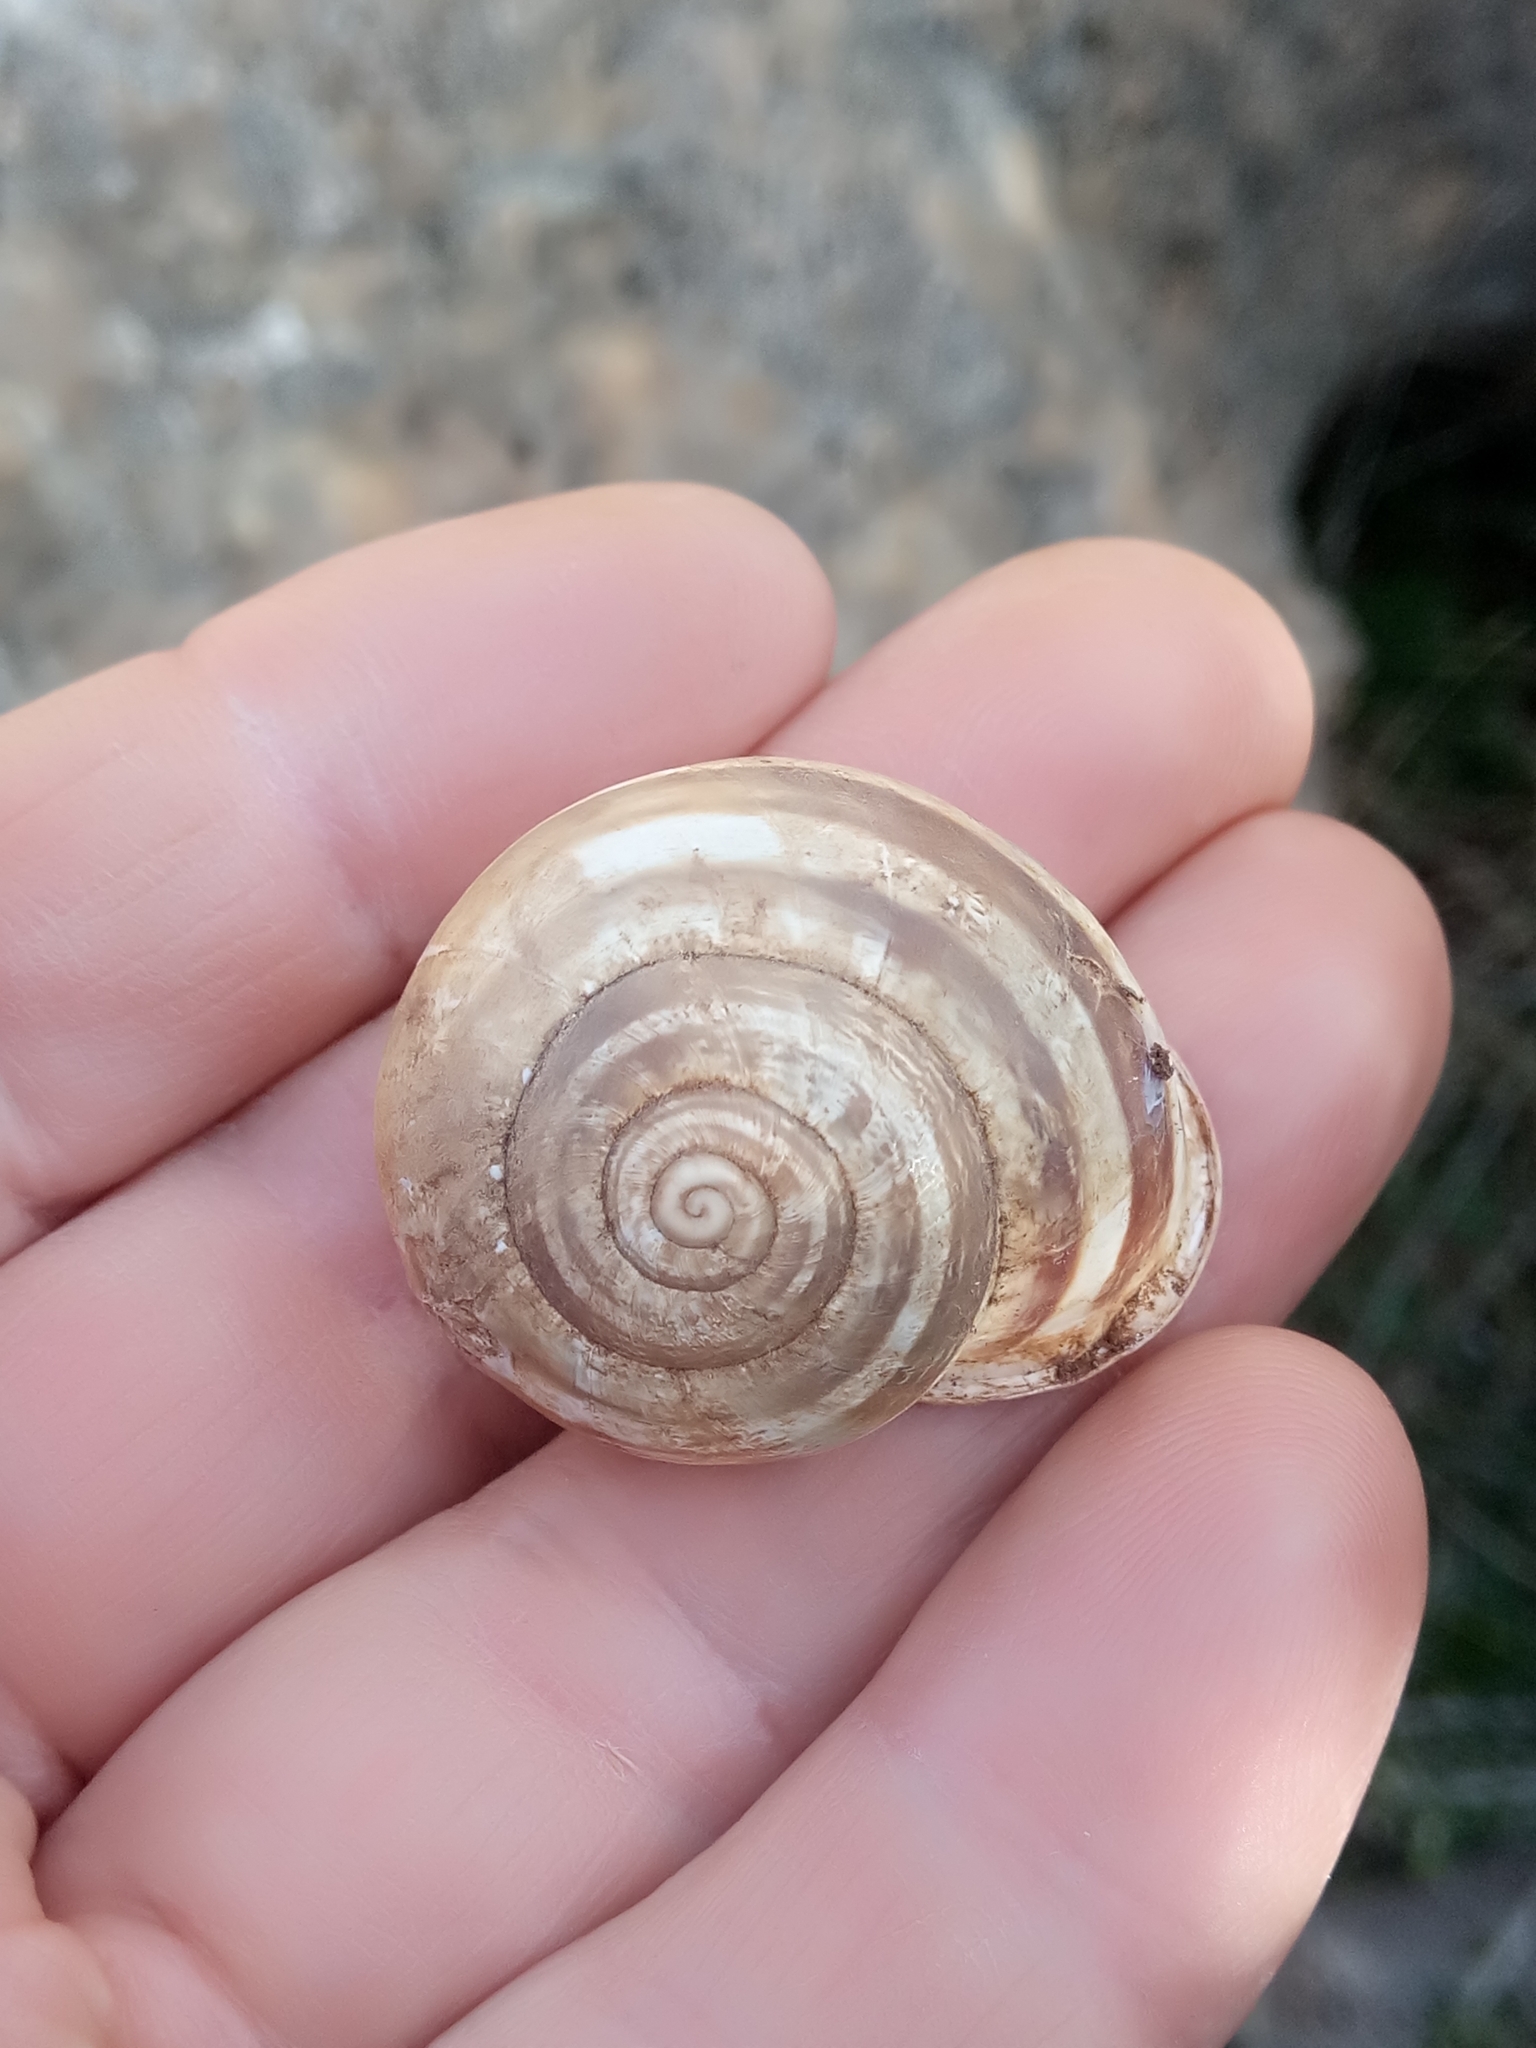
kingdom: Animalia
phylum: Mollusca
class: Gastropoda
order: Stylommatophora
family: Helicidae
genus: Eobania
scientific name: Eobania constantina
